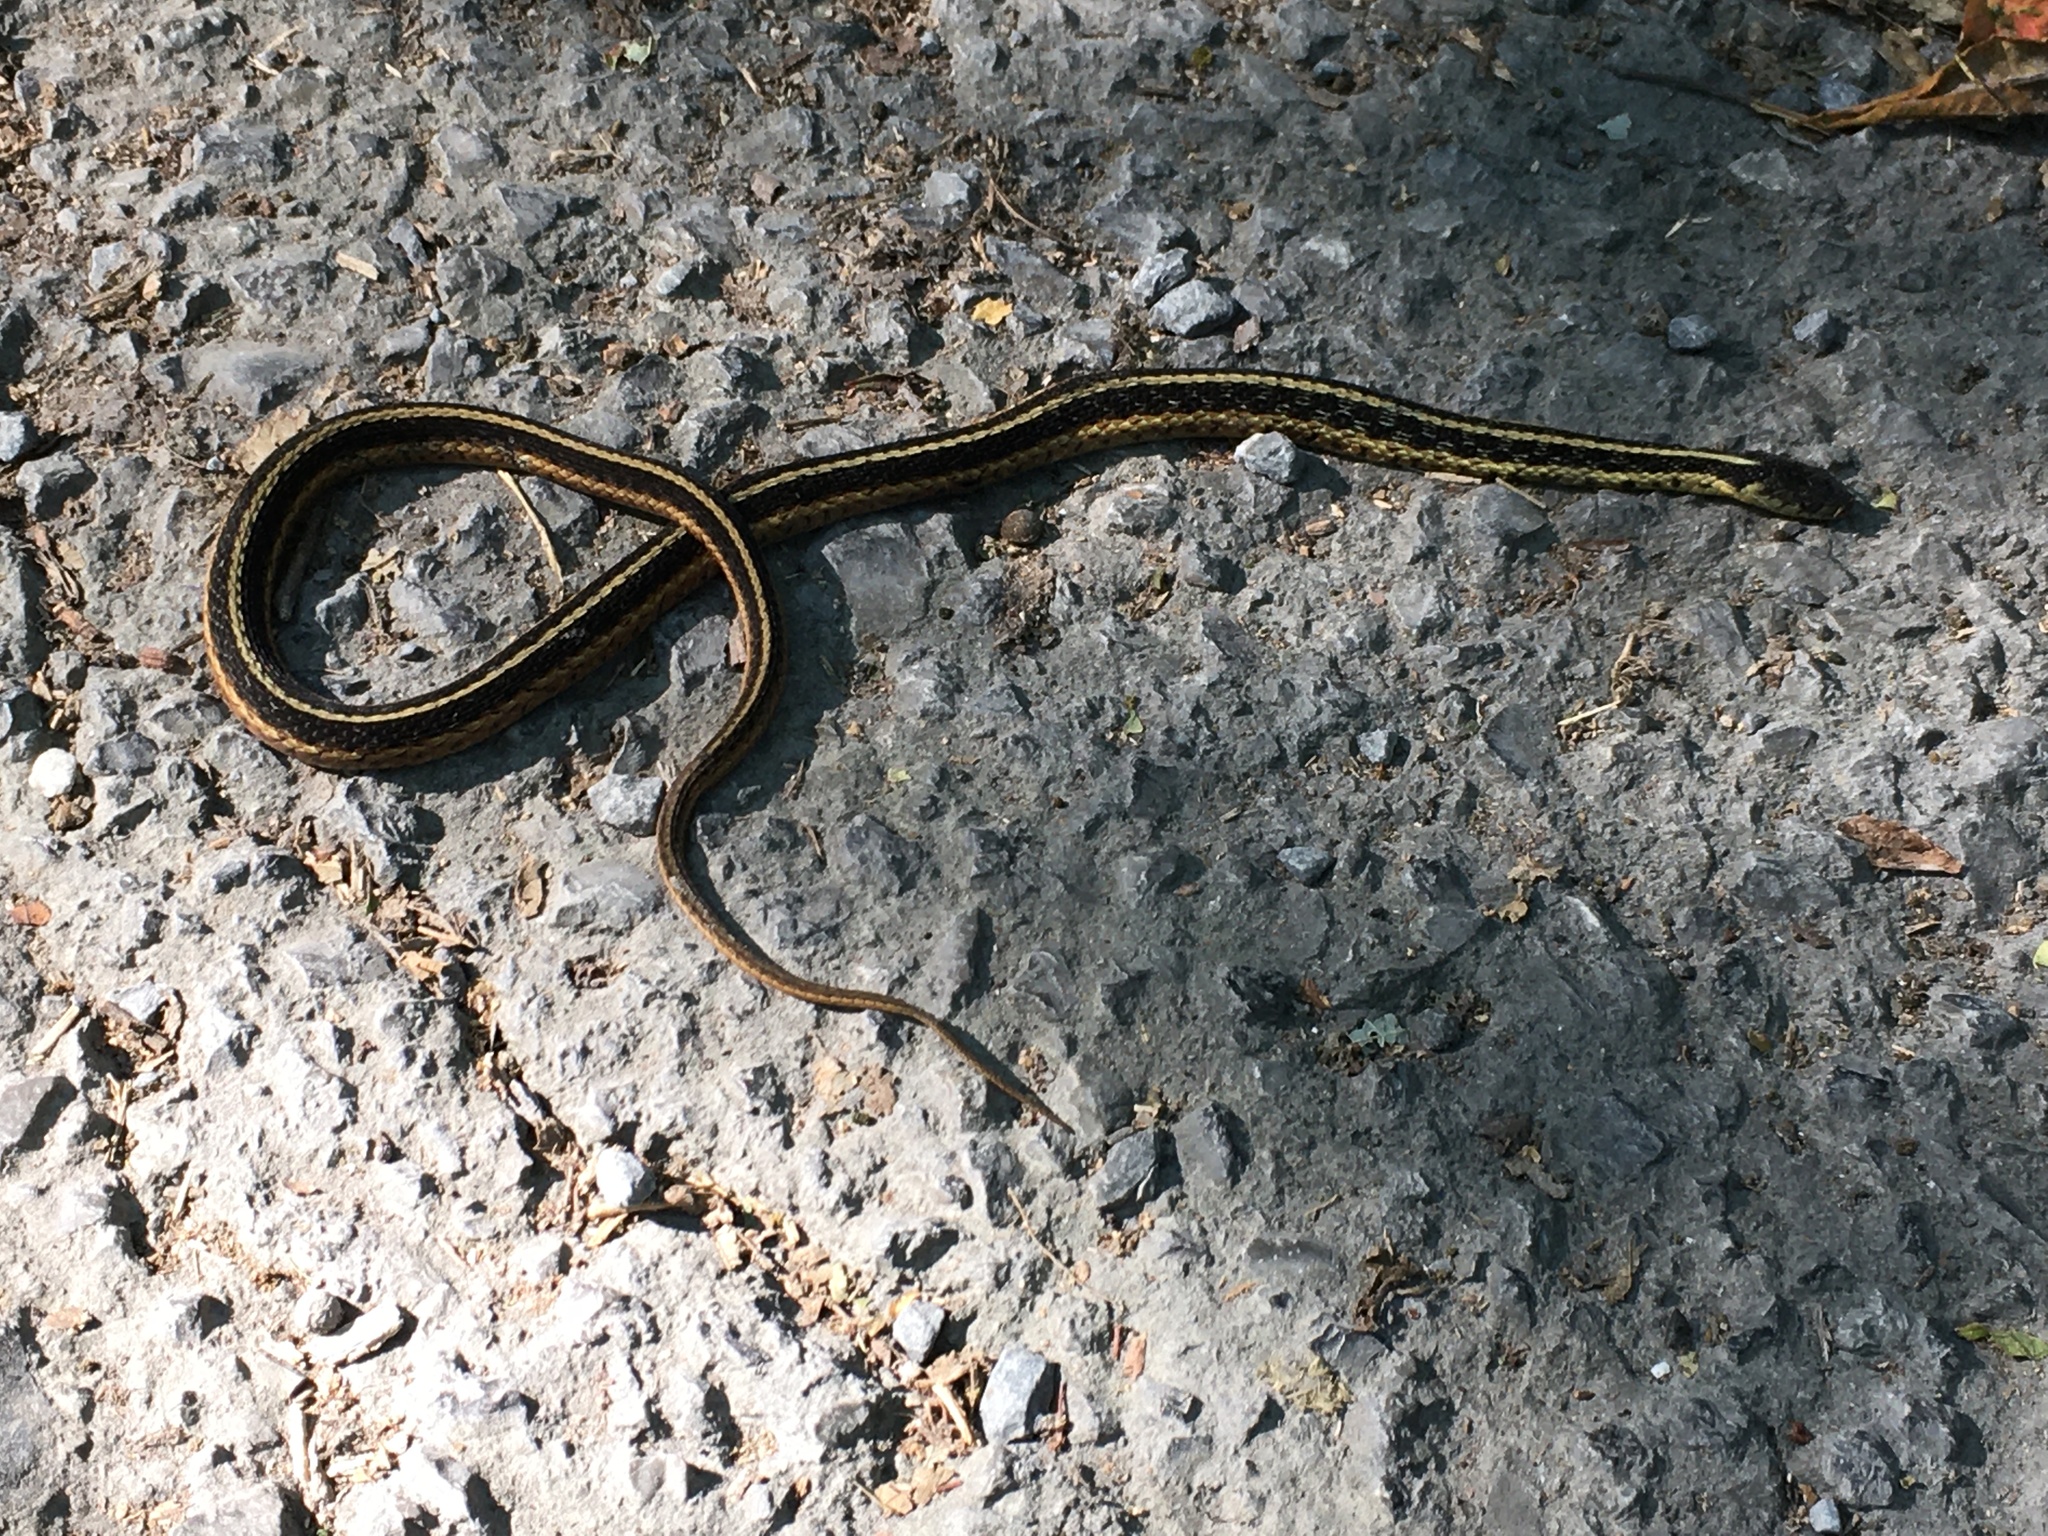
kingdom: Animalia
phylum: Chordata
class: Squamata
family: Colubridae
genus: Thamnophis
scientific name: Thamnophis sirtalis
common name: Common garter snake
